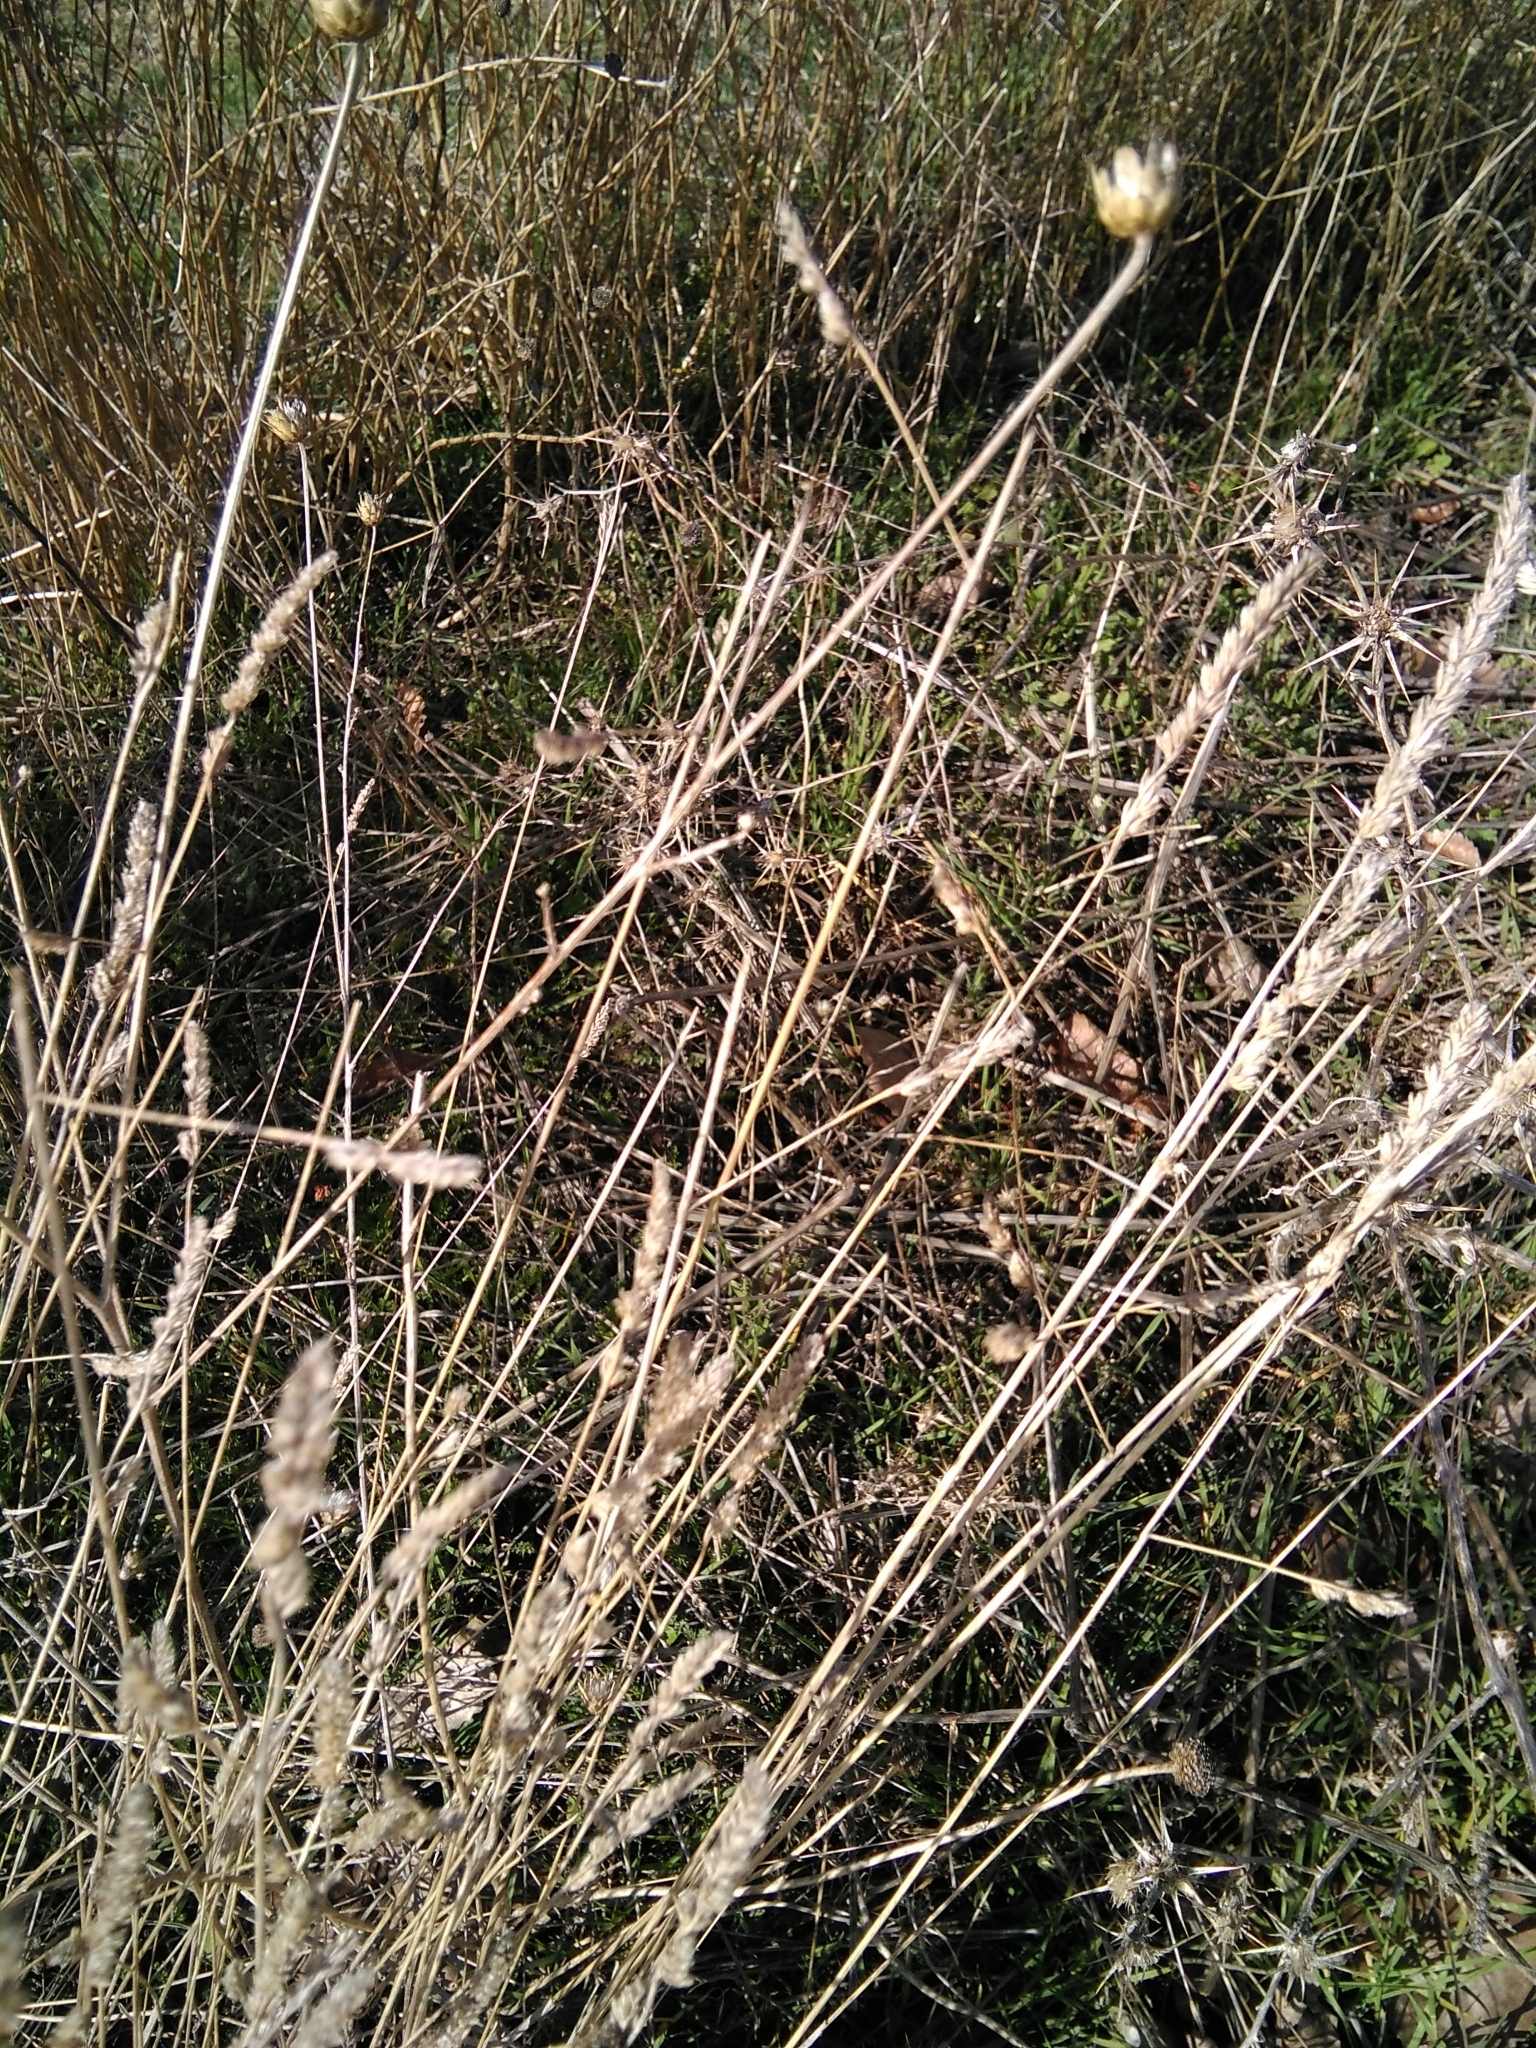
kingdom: Plantae
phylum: Tracheophyta
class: Liliopsida
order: Poales
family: Poaceae
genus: Dactylis
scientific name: Dactylis glomerata
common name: Orchardgrass
